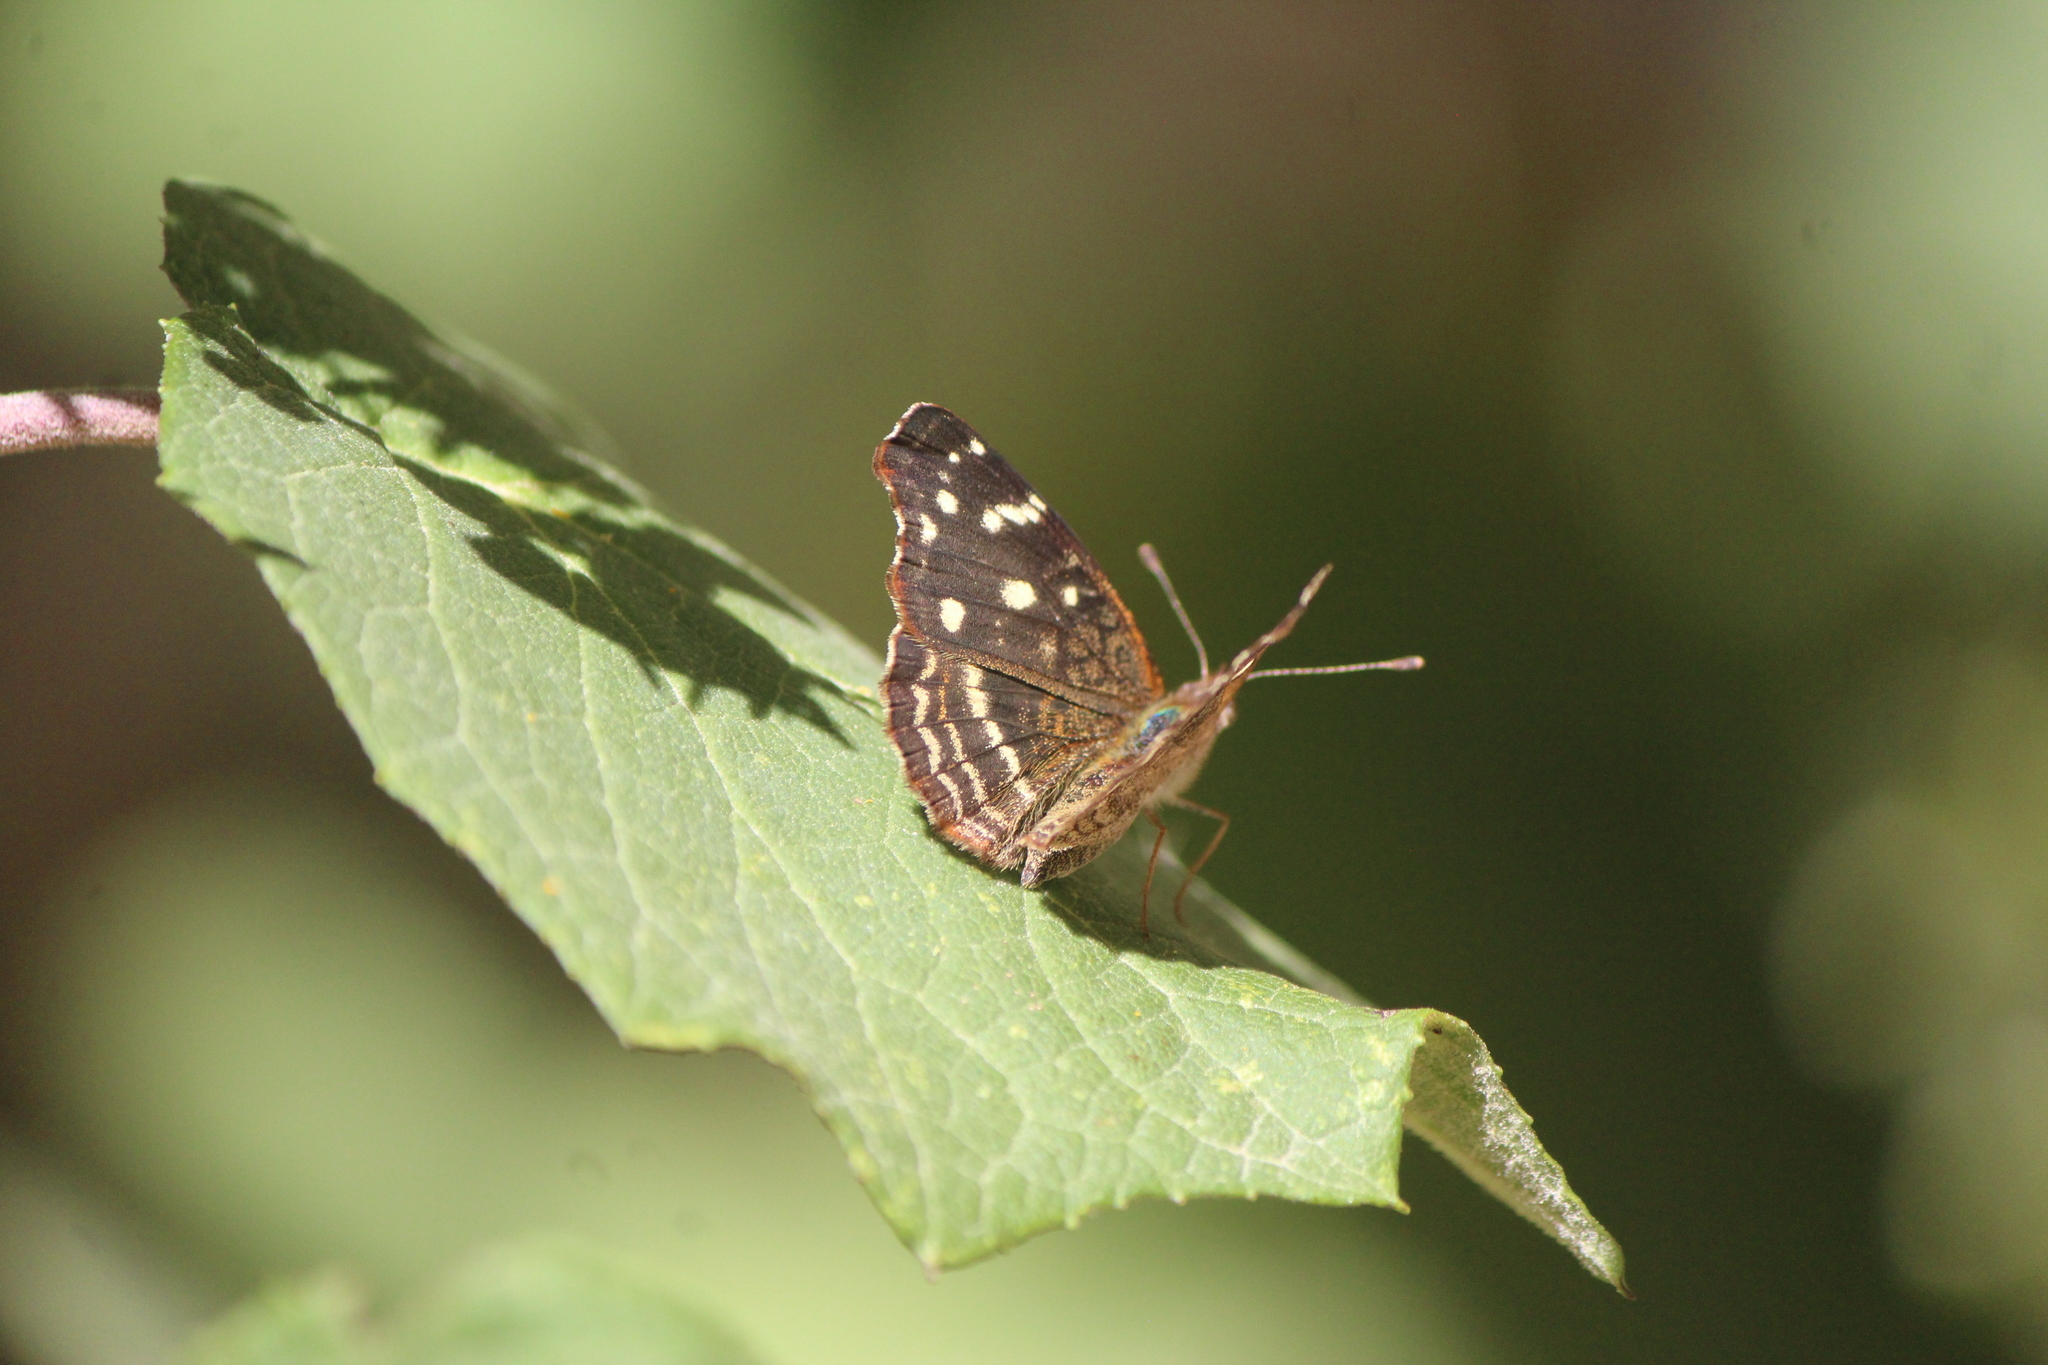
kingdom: Animalia
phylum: Arthropoda
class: Insecta
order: Lepidoptera
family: Nymphalidae
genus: Anthanassa
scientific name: Anthanassa texana
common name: Texan crescent
